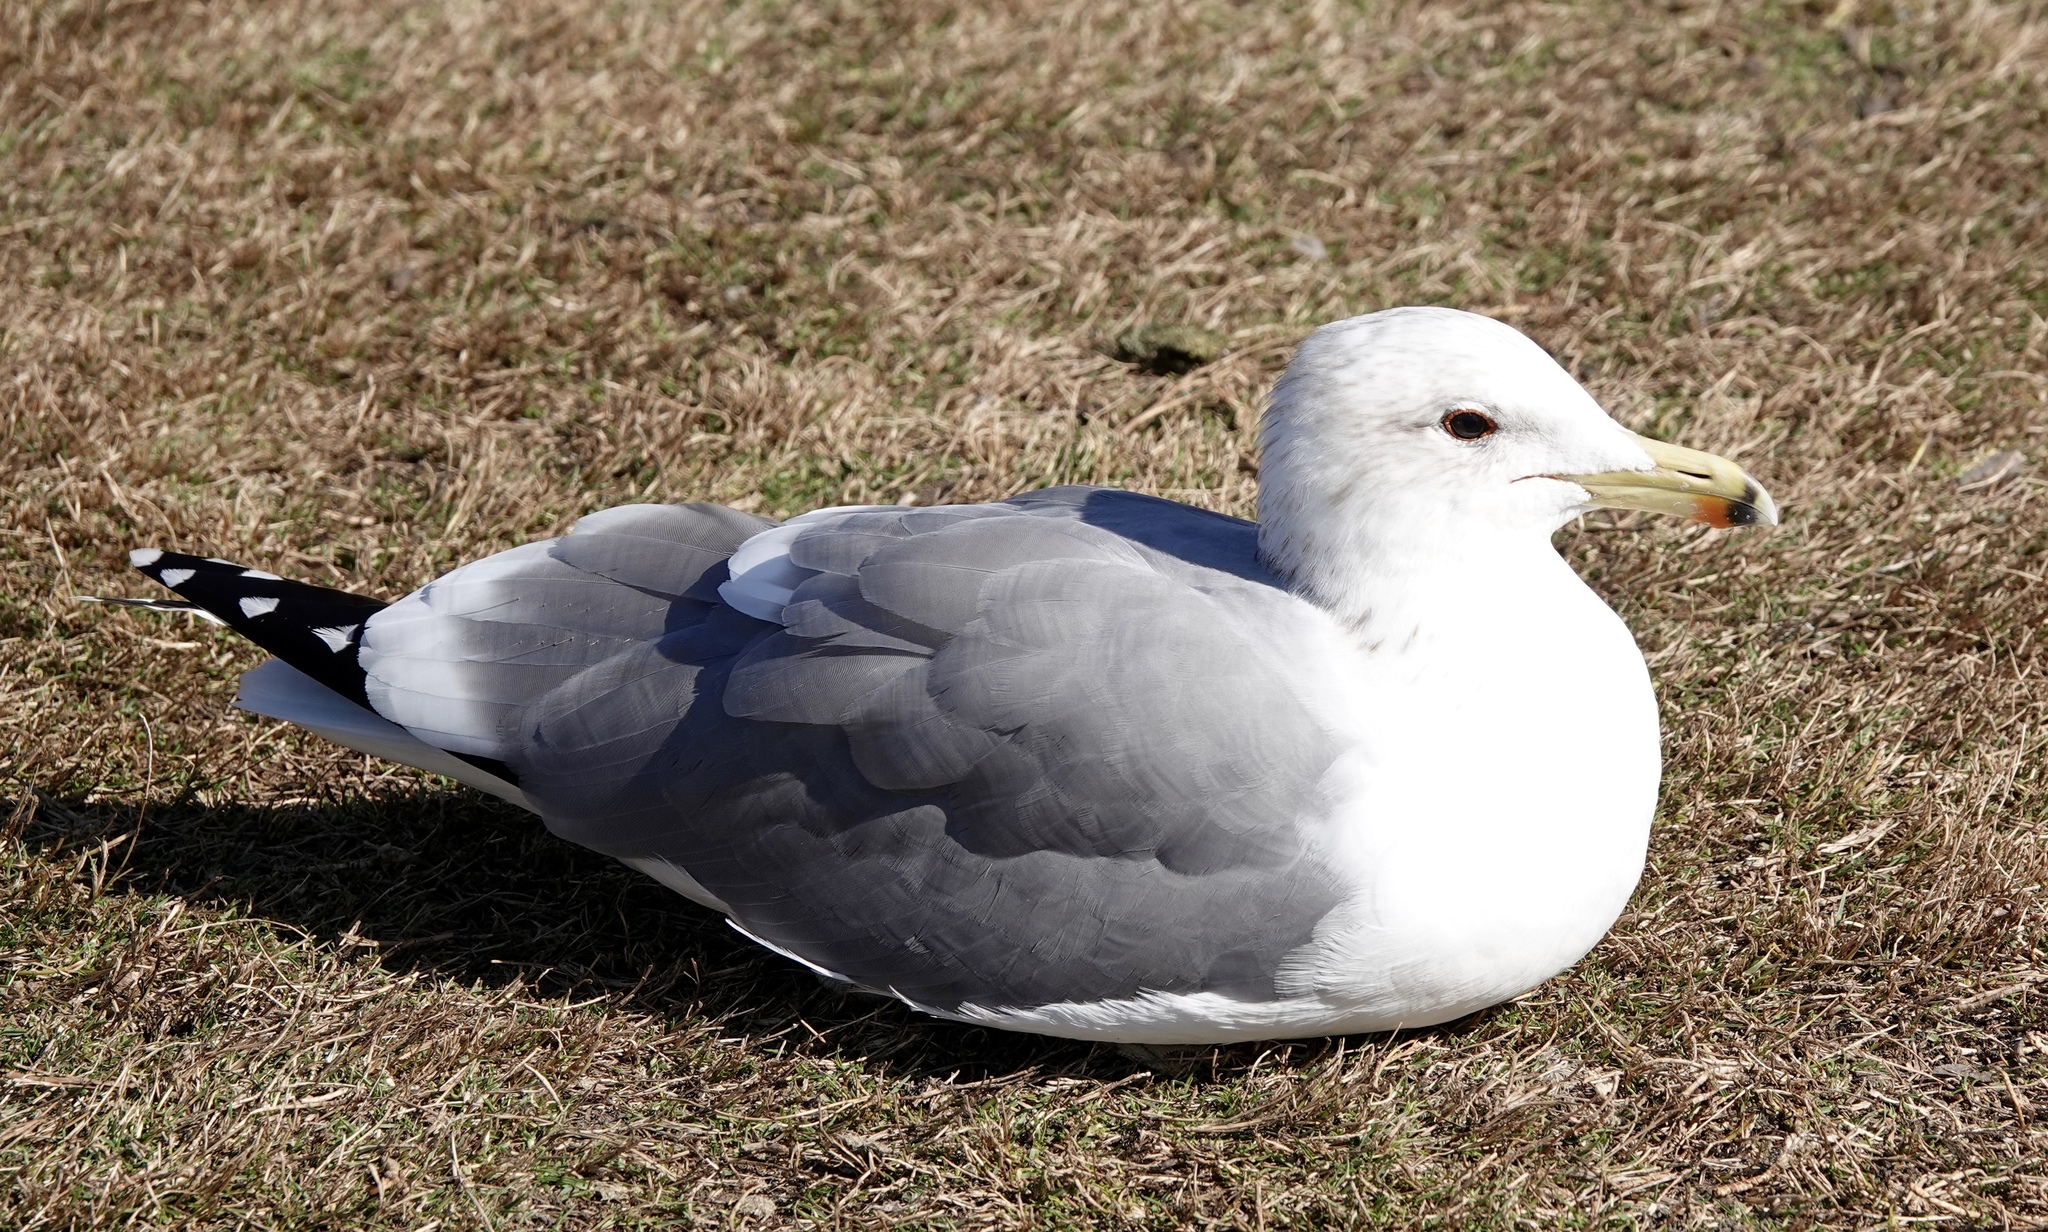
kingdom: Animalia
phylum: Chordata
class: Aves
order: Charadriiformes
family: Laridae
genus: Larus
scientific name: Larus californicus
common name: California gull
